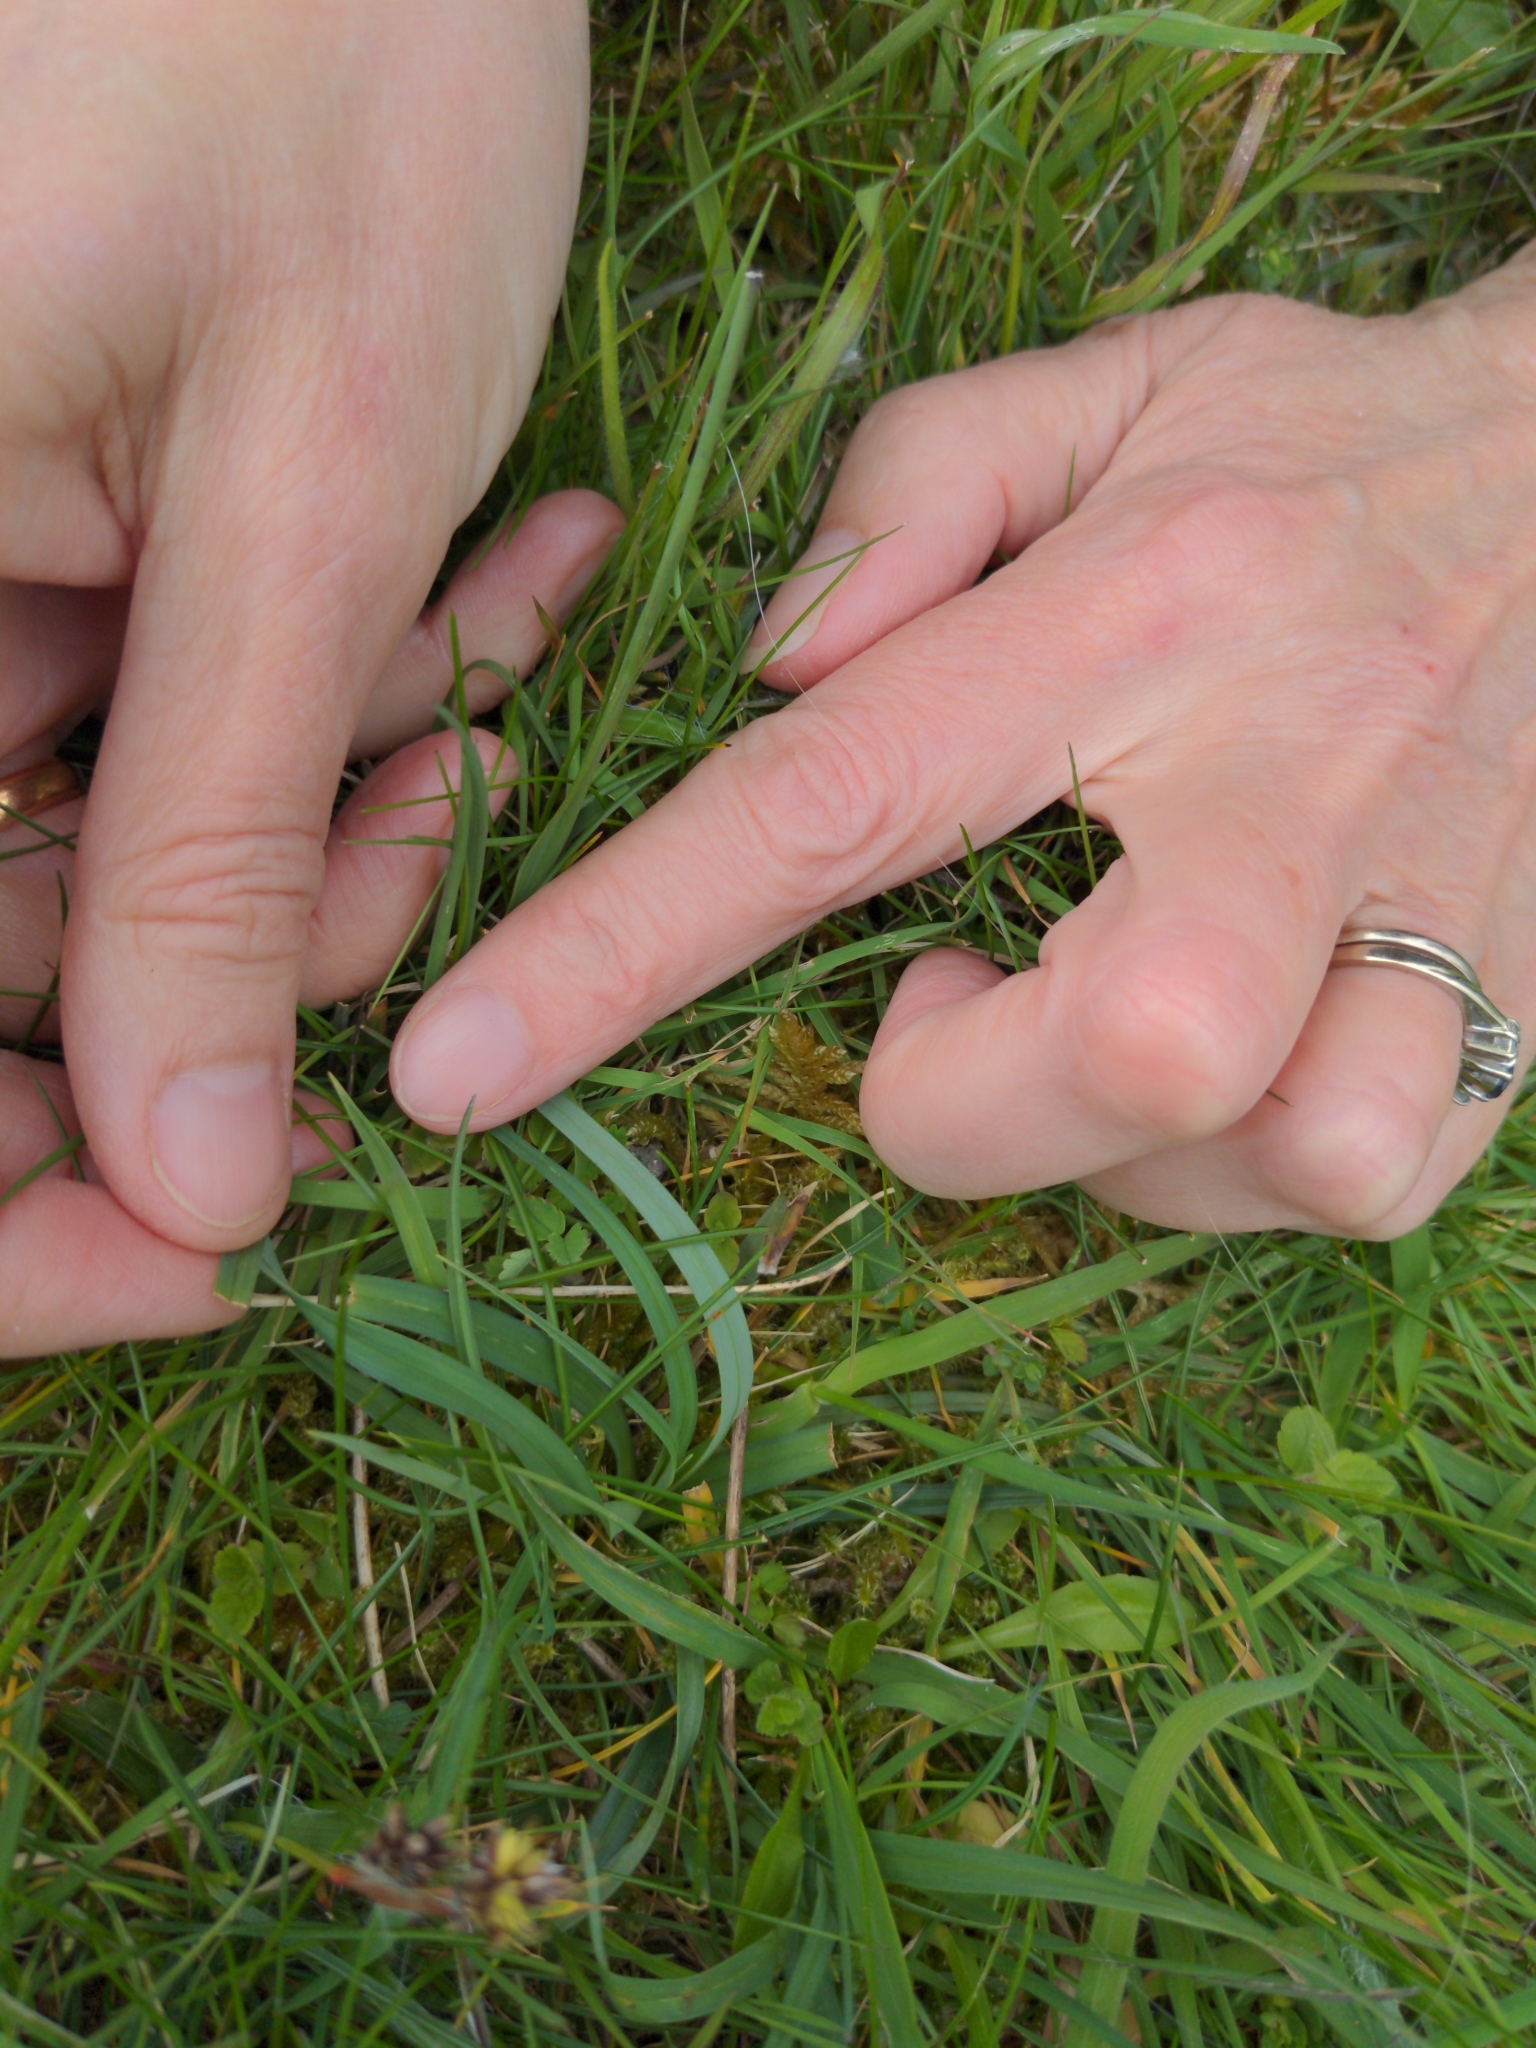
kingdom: Plantae
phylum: Tracheophyta
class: Liliopsida
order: Poales
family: Cyperaceae
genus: Carex
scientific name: Carex flacca
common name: Glaucous sedge
